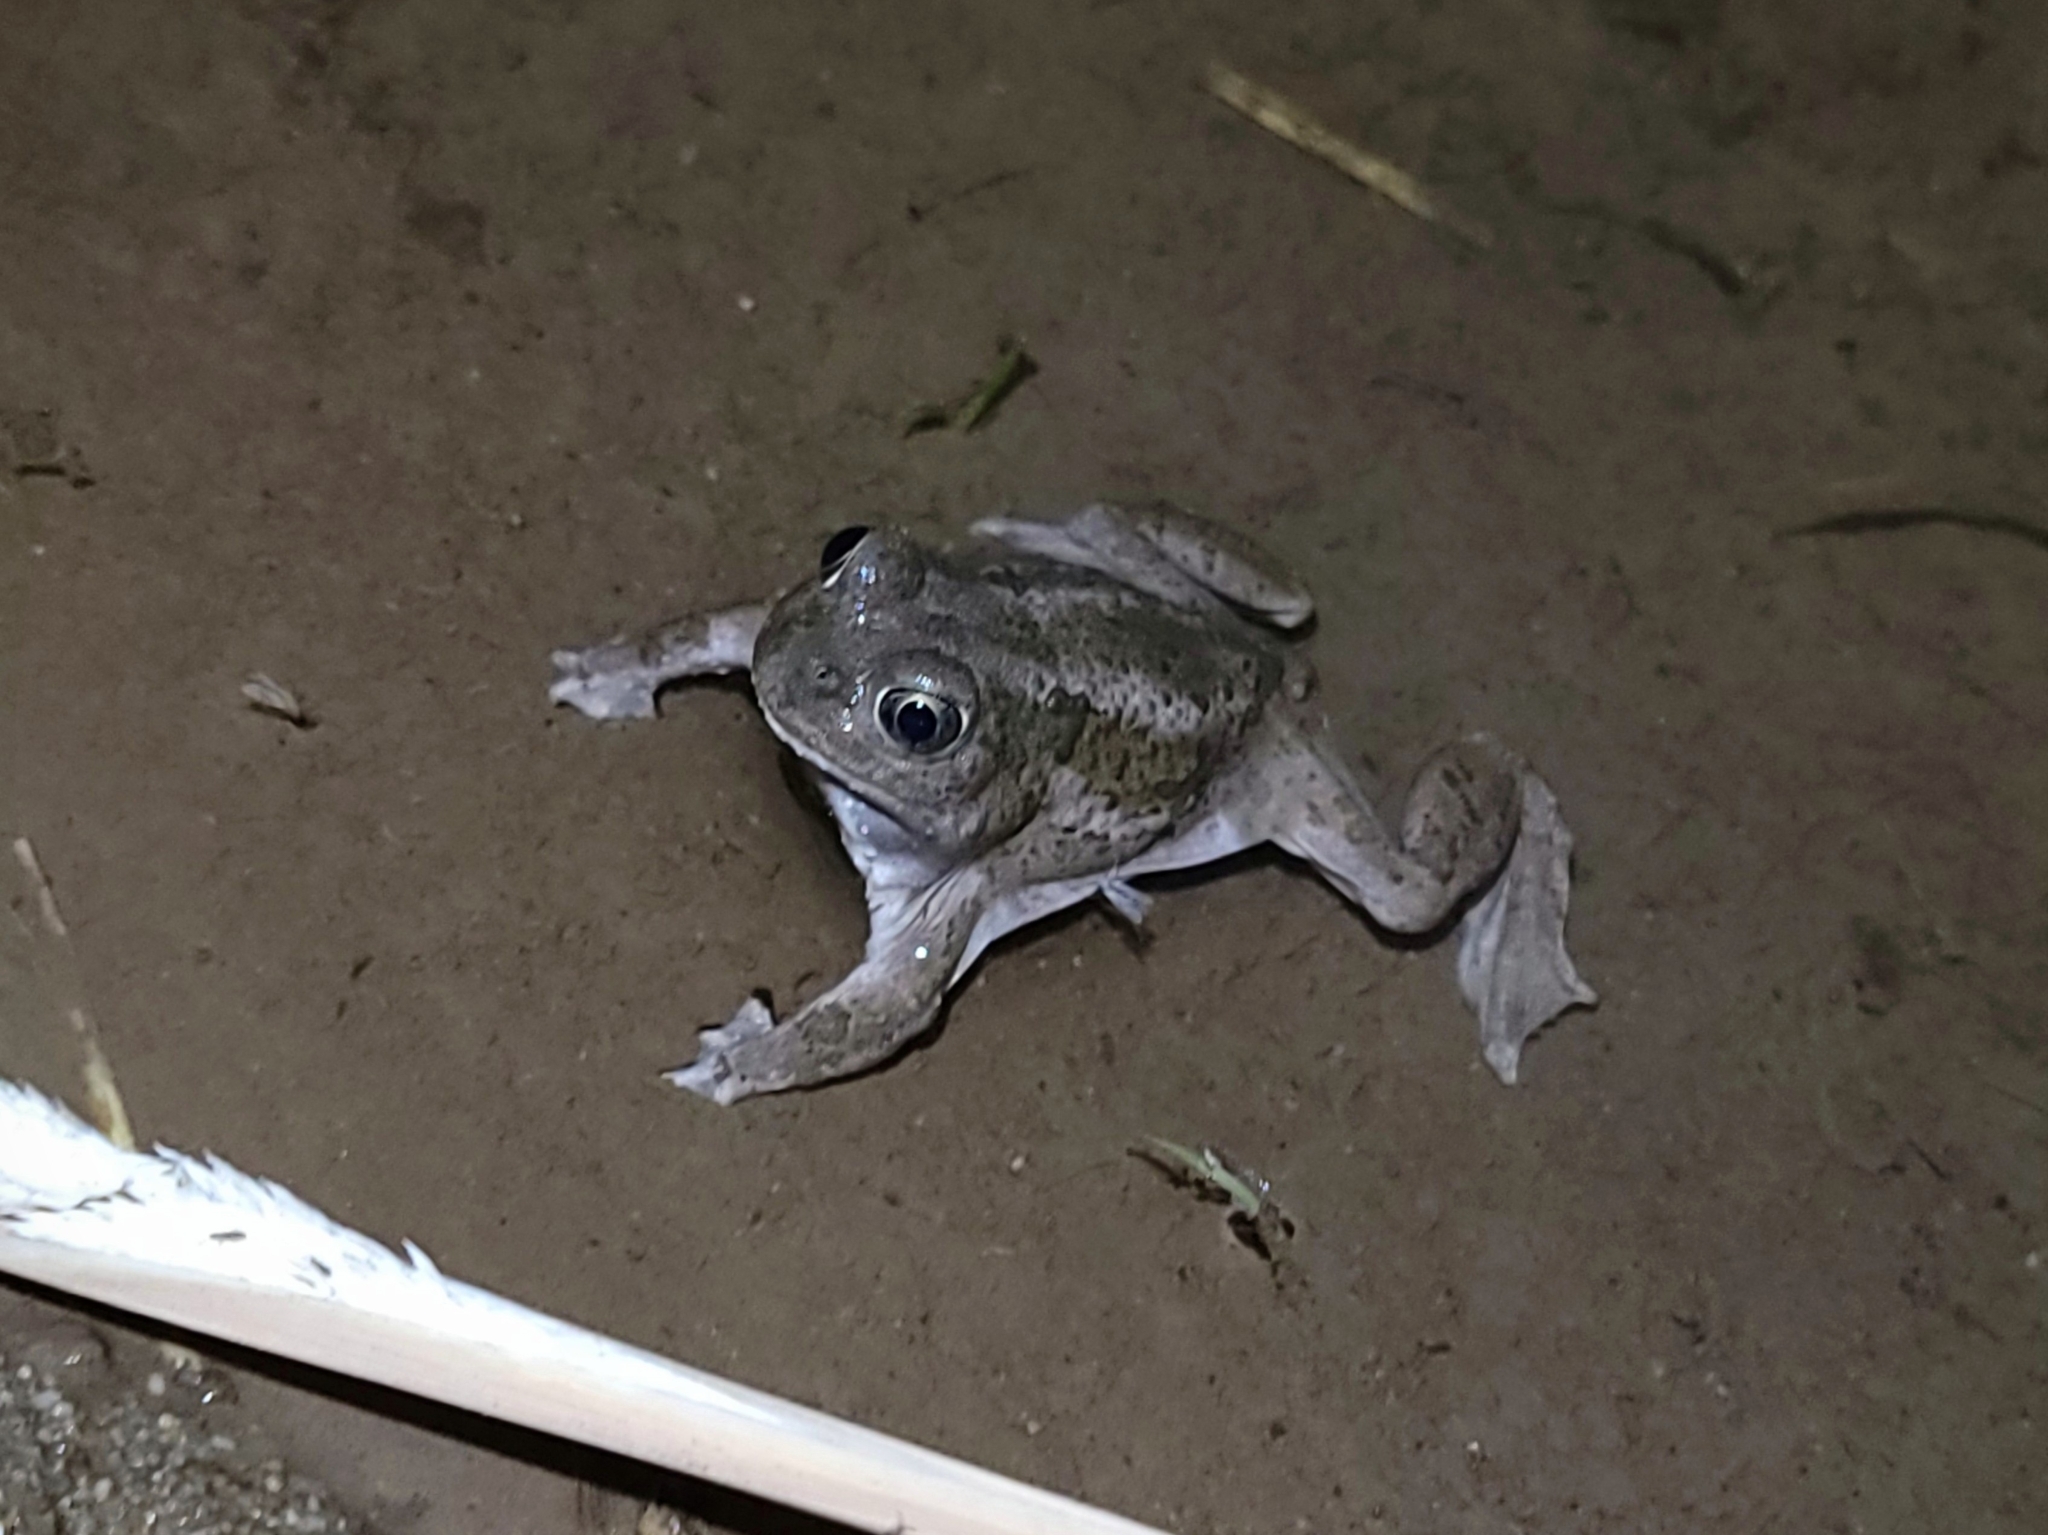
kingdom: Animalia
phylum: Chordata
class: Amphibia
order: Anura
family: Scaphiopodidae
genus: Spea
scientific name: Spea intermontana
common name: Great basin spadefoot
